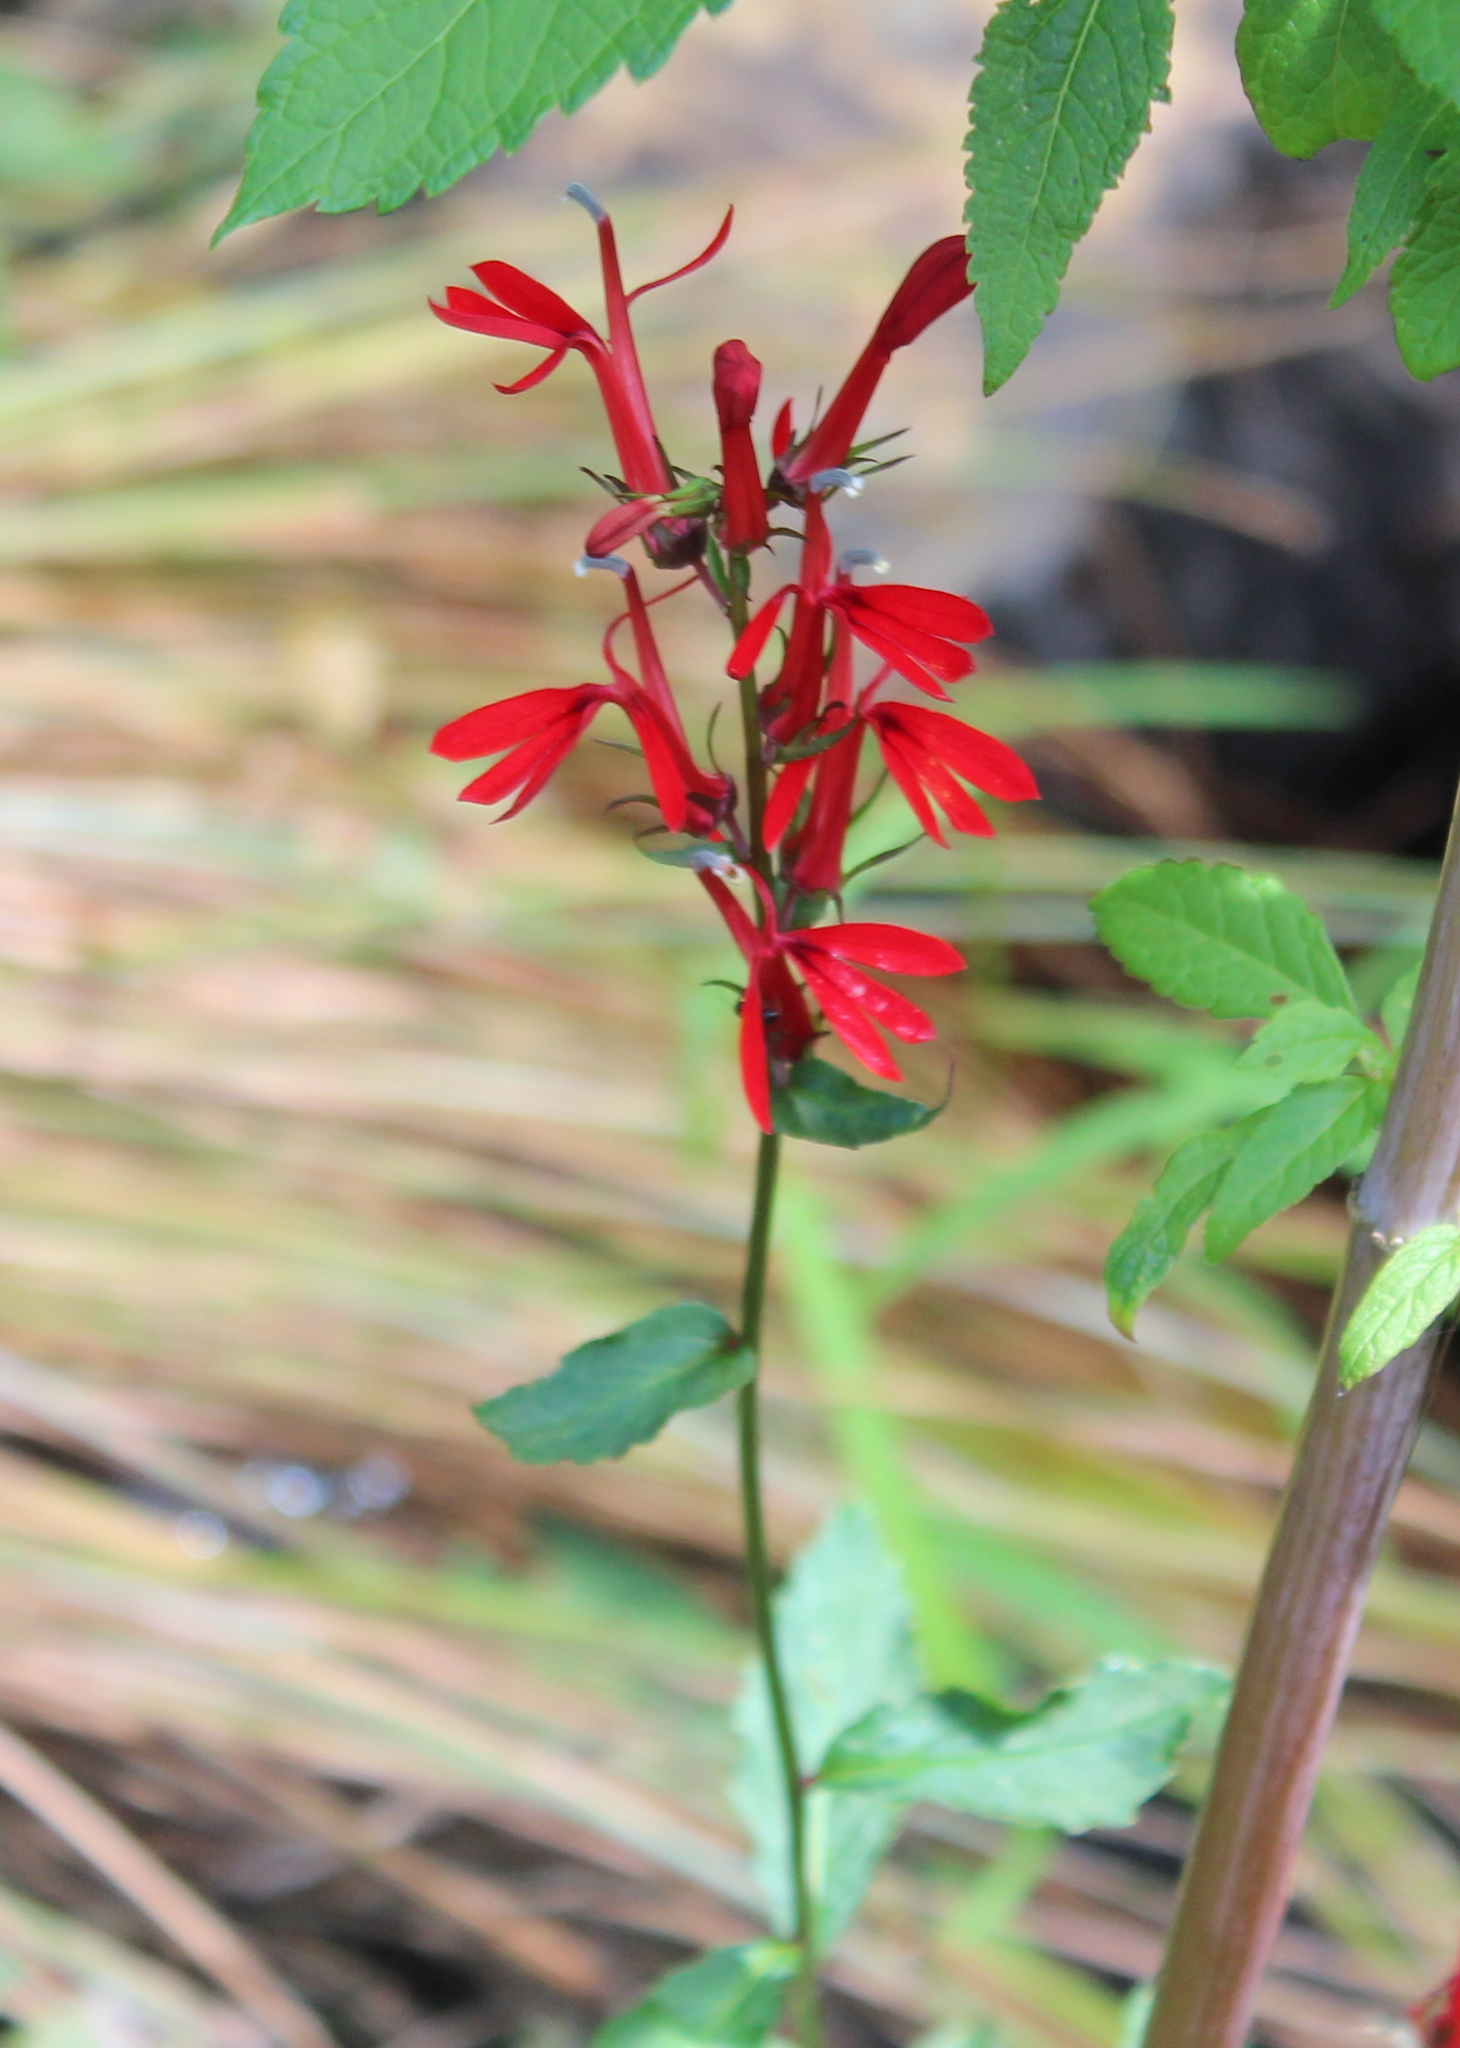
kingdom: Plantae
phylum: Tracheophyta
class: Magnoliopsida
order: Asterales
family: Campanulaceae
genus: Lobelia
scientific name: Lobelia cardinalis
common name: Cardinal flower
